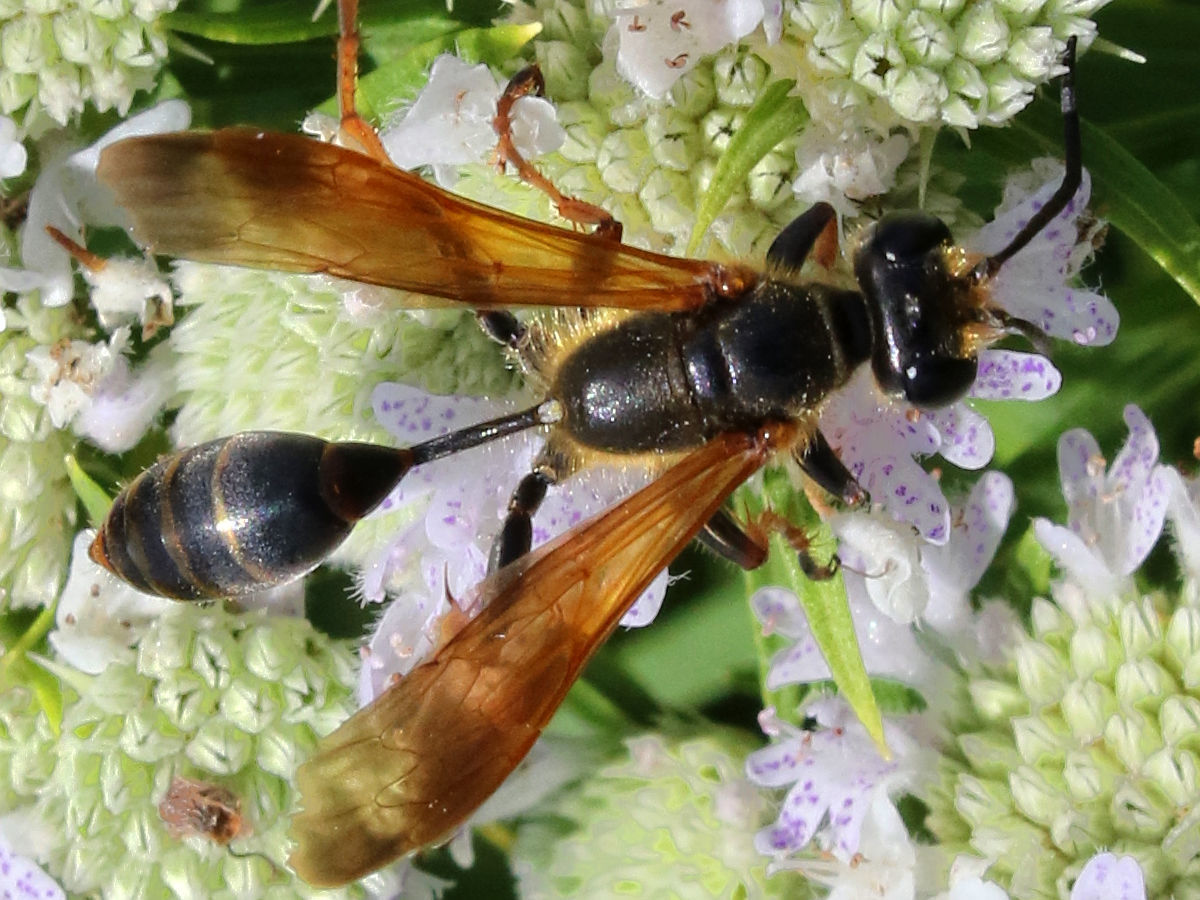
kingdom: Animalia
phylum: Arthropoda
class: Insecta
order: Hymenoptera
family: Sphecidae
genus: Isodontia
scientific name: Isodontia elegans
